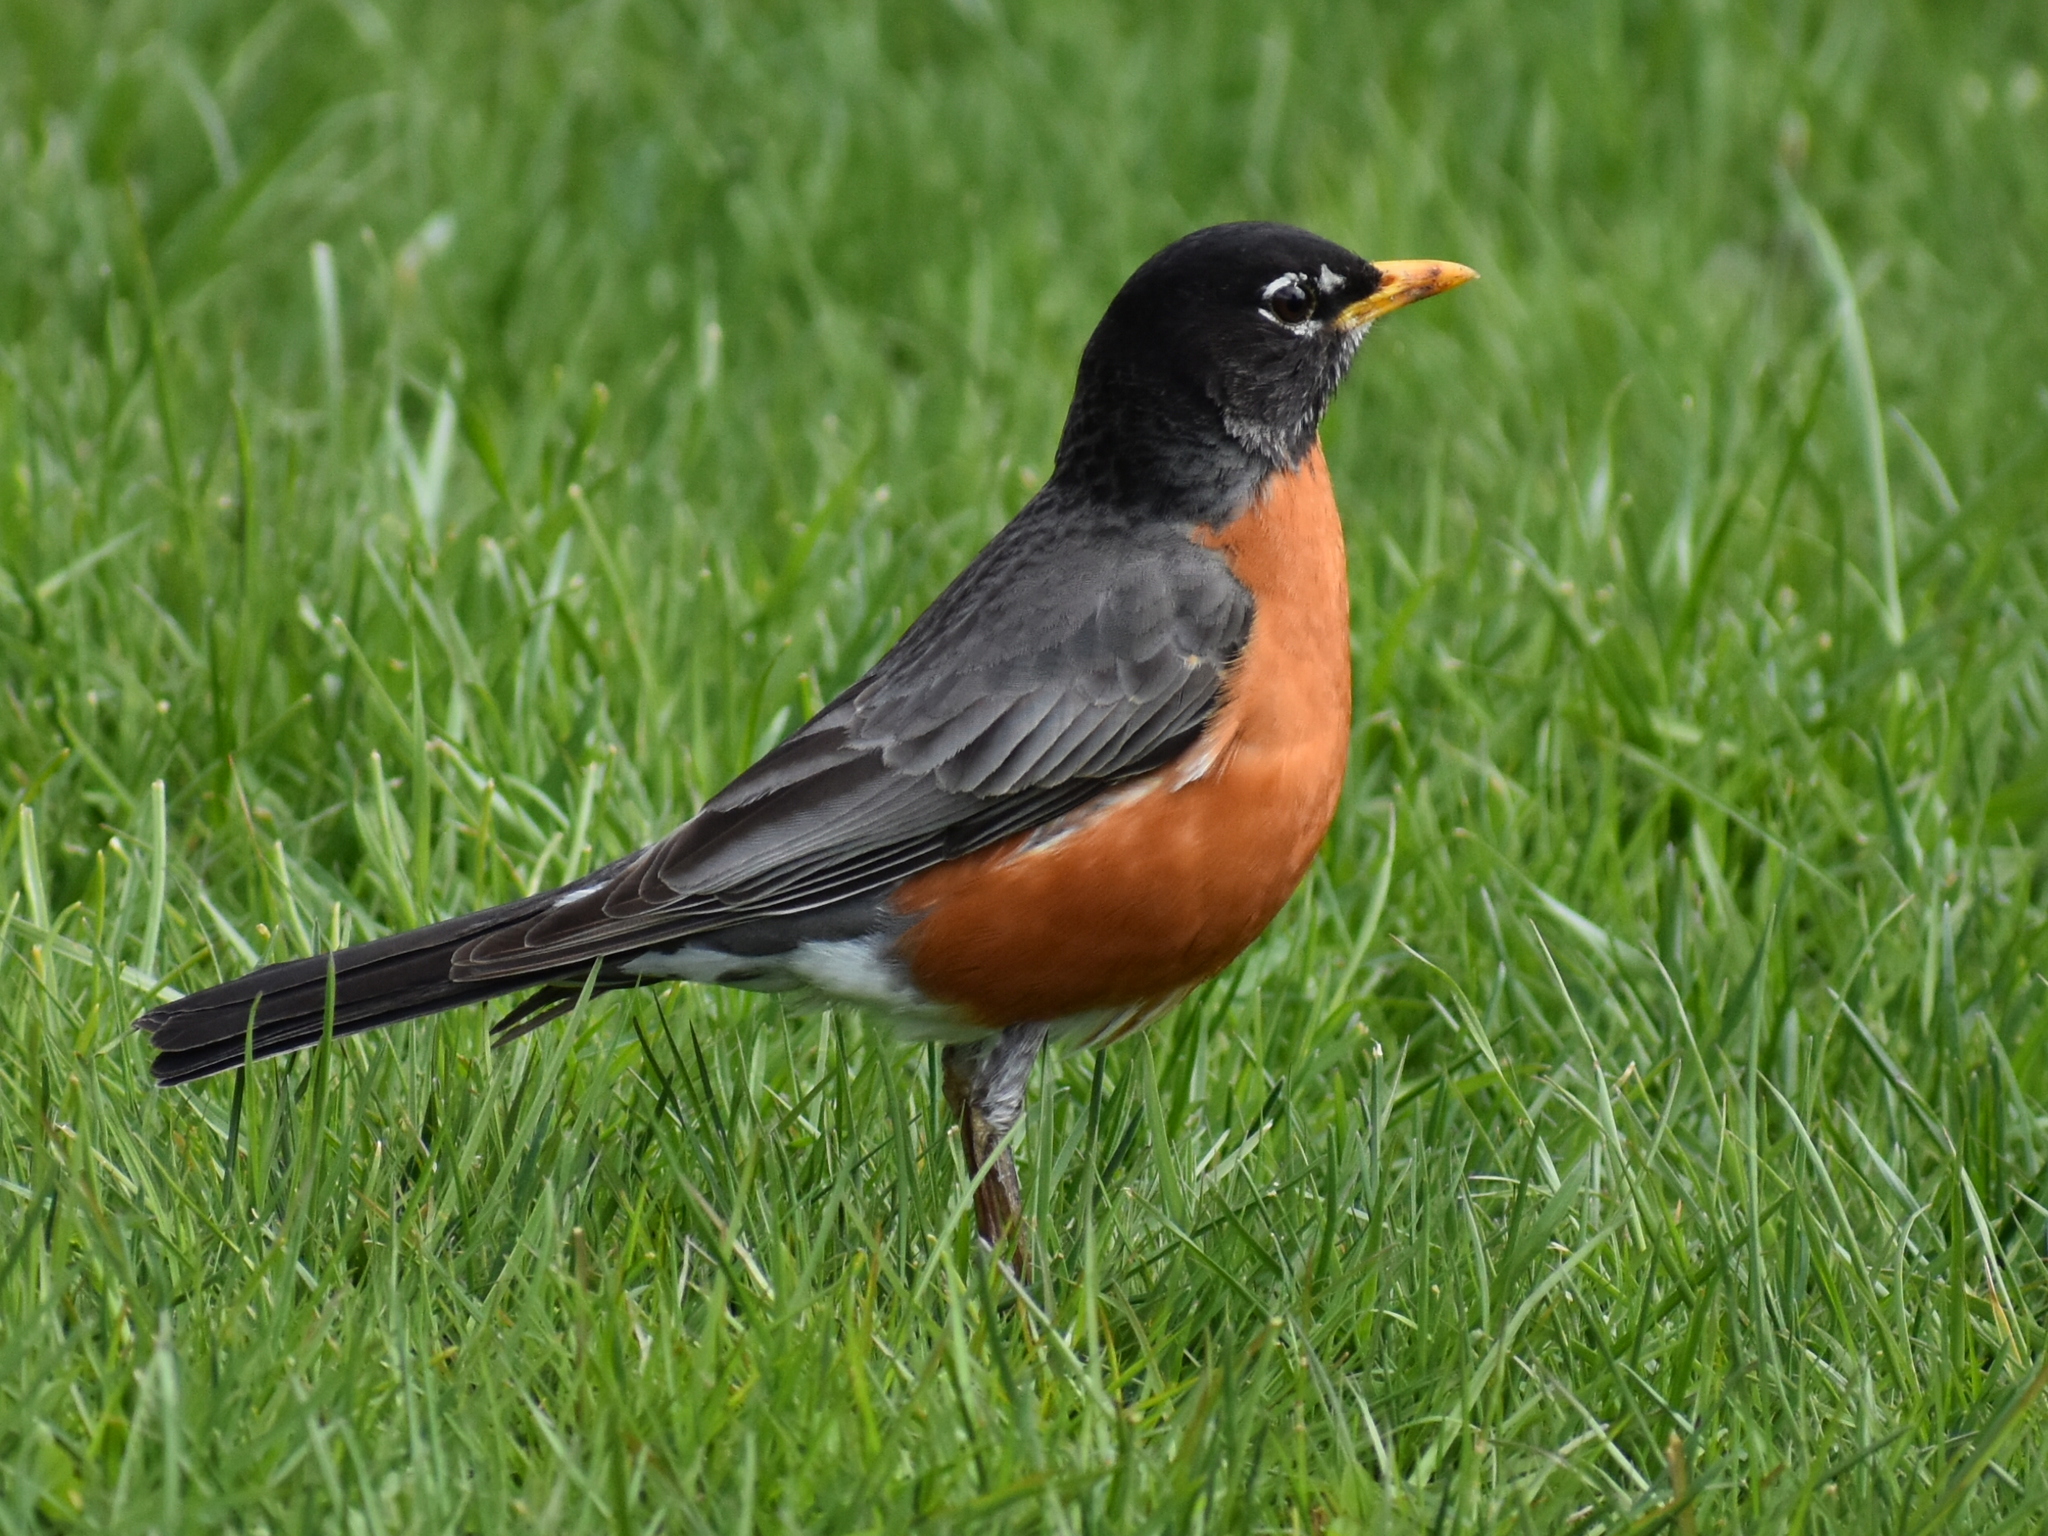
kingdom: Animalia
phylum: Chordata
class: Aves
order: Passeriformes
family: Turdidae
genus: Turdus
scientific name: Turdus migratorius
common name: American robin
